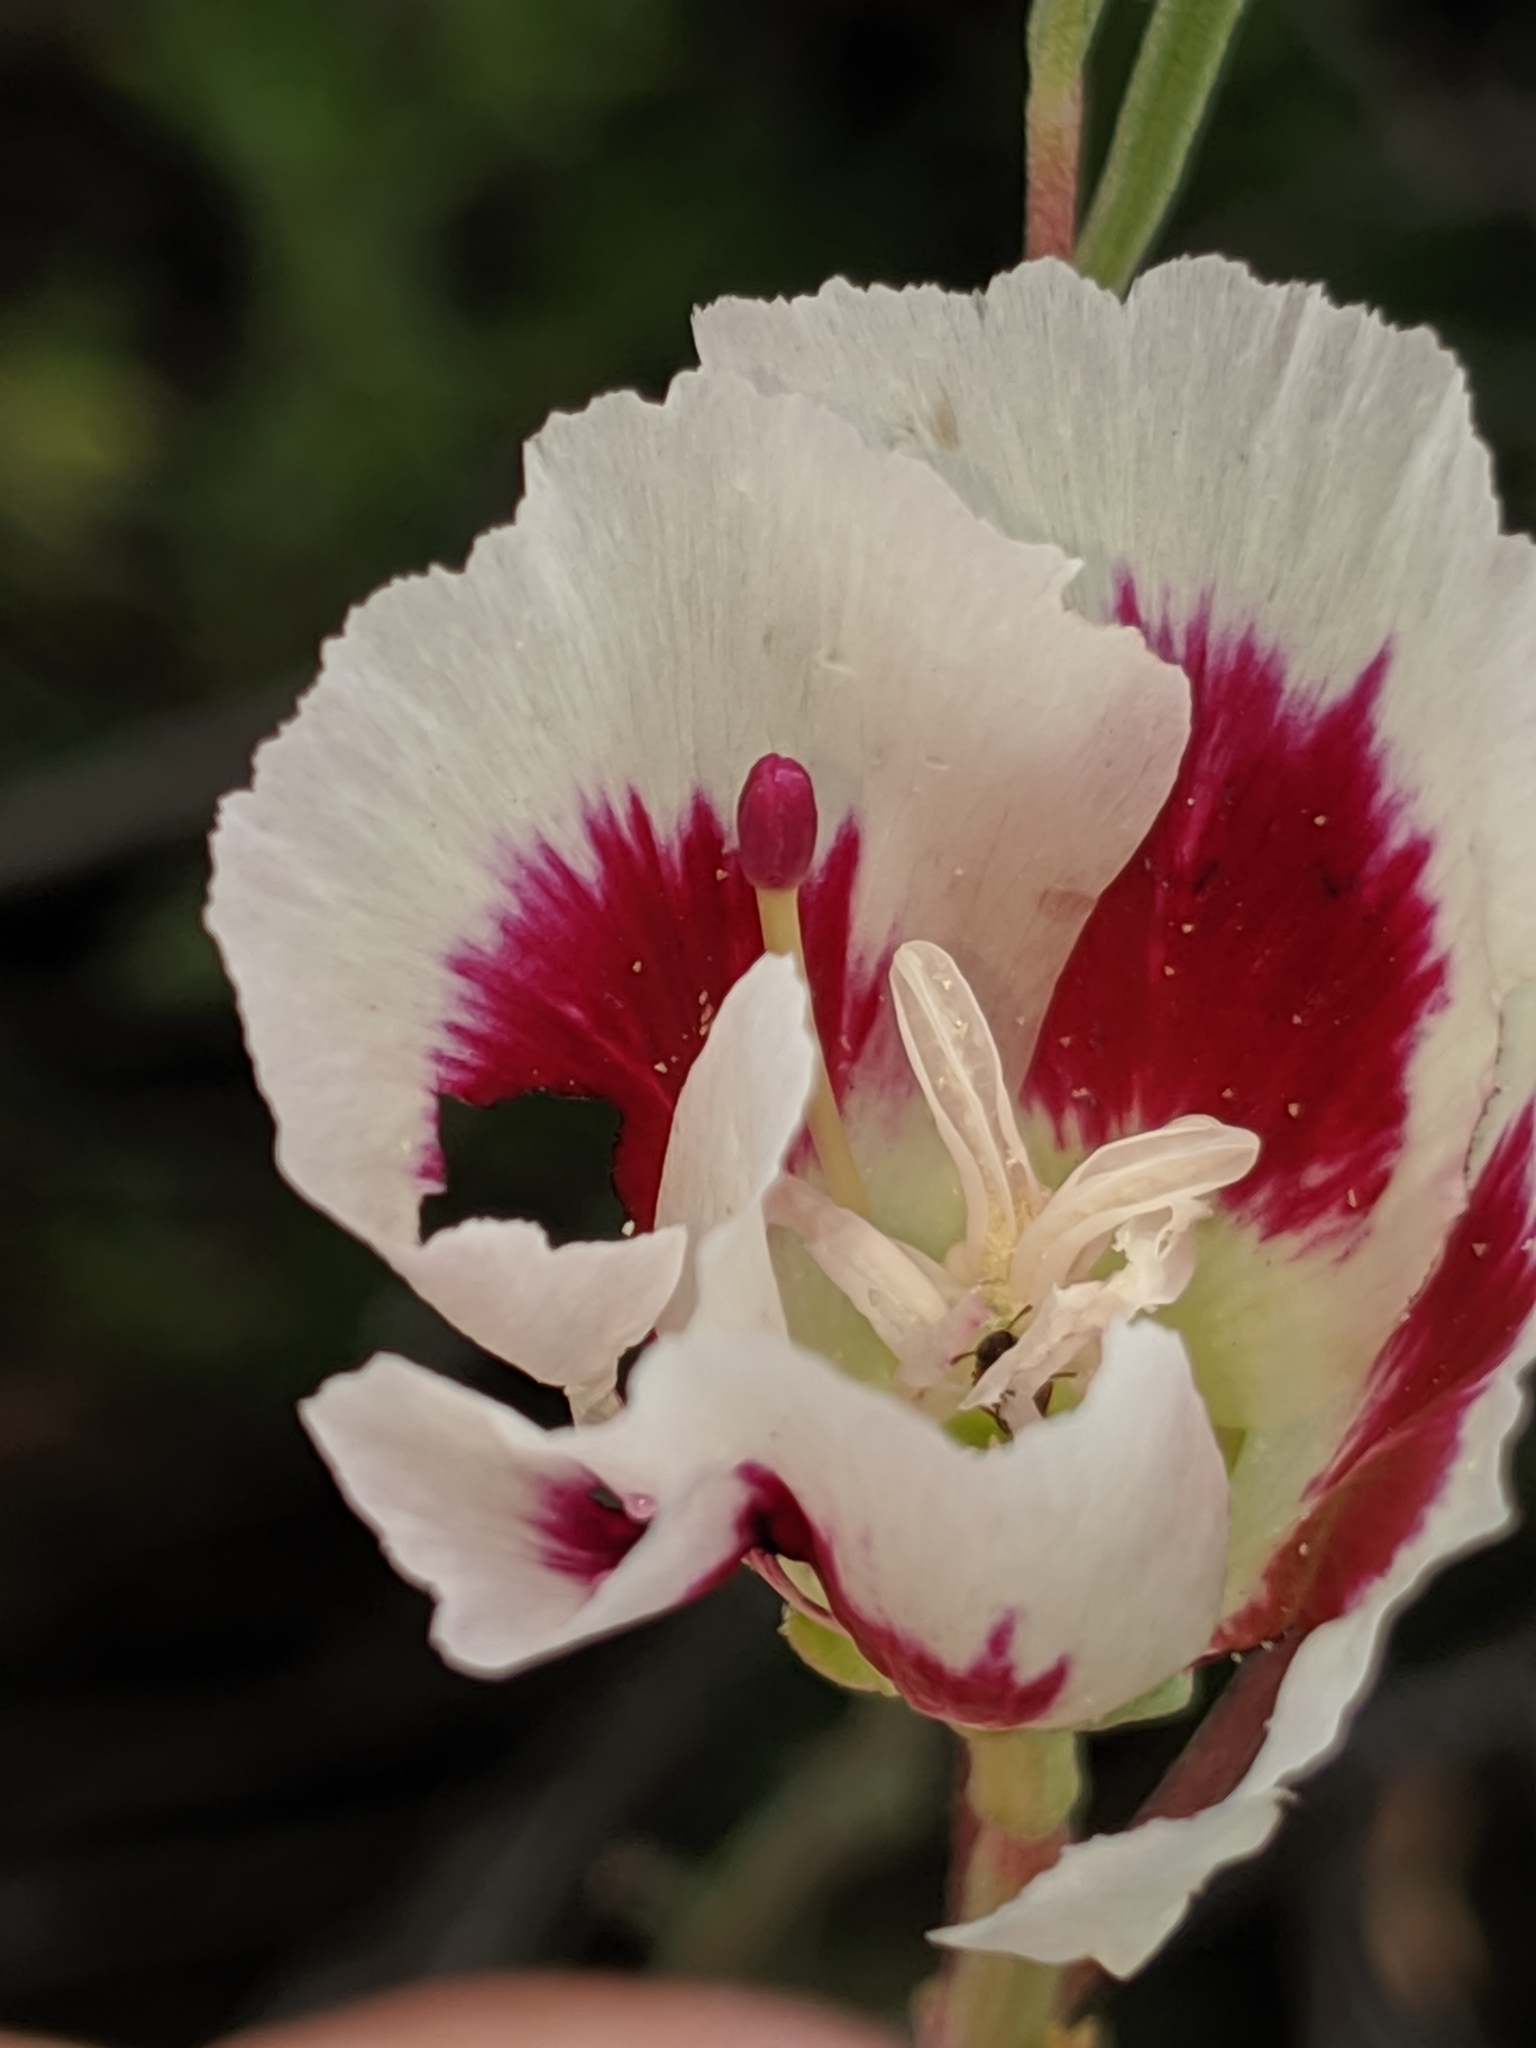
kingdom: Plantae
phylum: Tracheophyta
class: Magnoliopsida
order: Myrtales
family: Onagraceae
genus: Clarkia
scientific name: Clarkia speciosa
